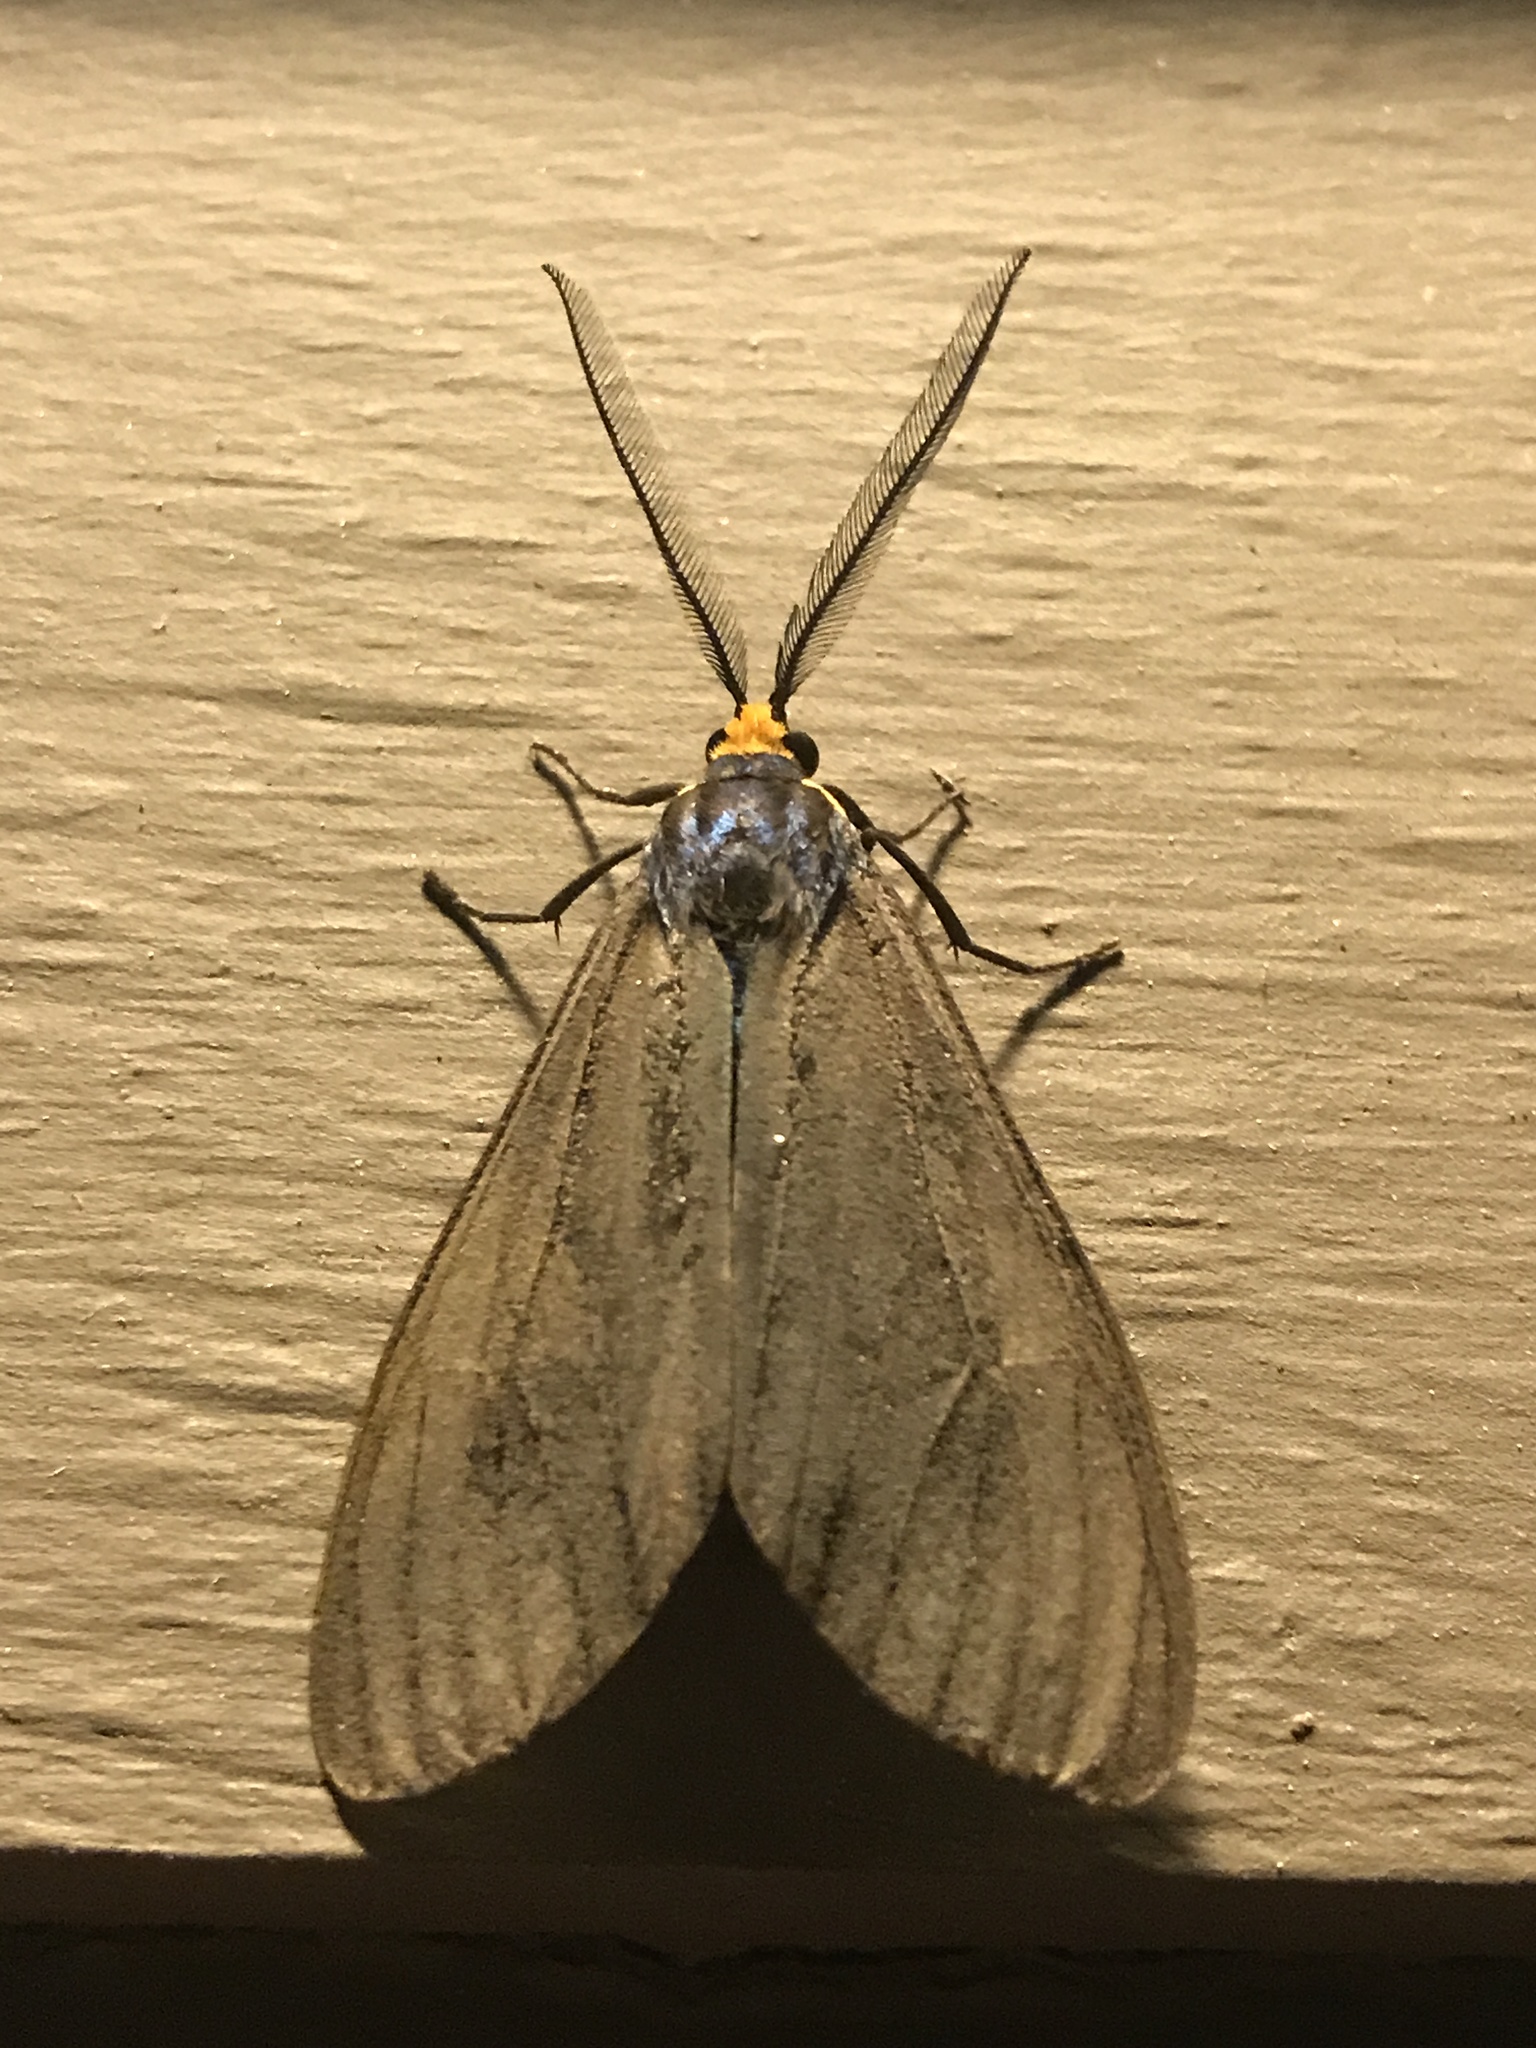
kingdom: Animalia
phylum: Arthropoda
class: Insecta
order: Lepidoptera
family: Erebidae
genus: Ctenucha
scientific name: Ctenucha virginica
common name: Virginia ctenucha moth
